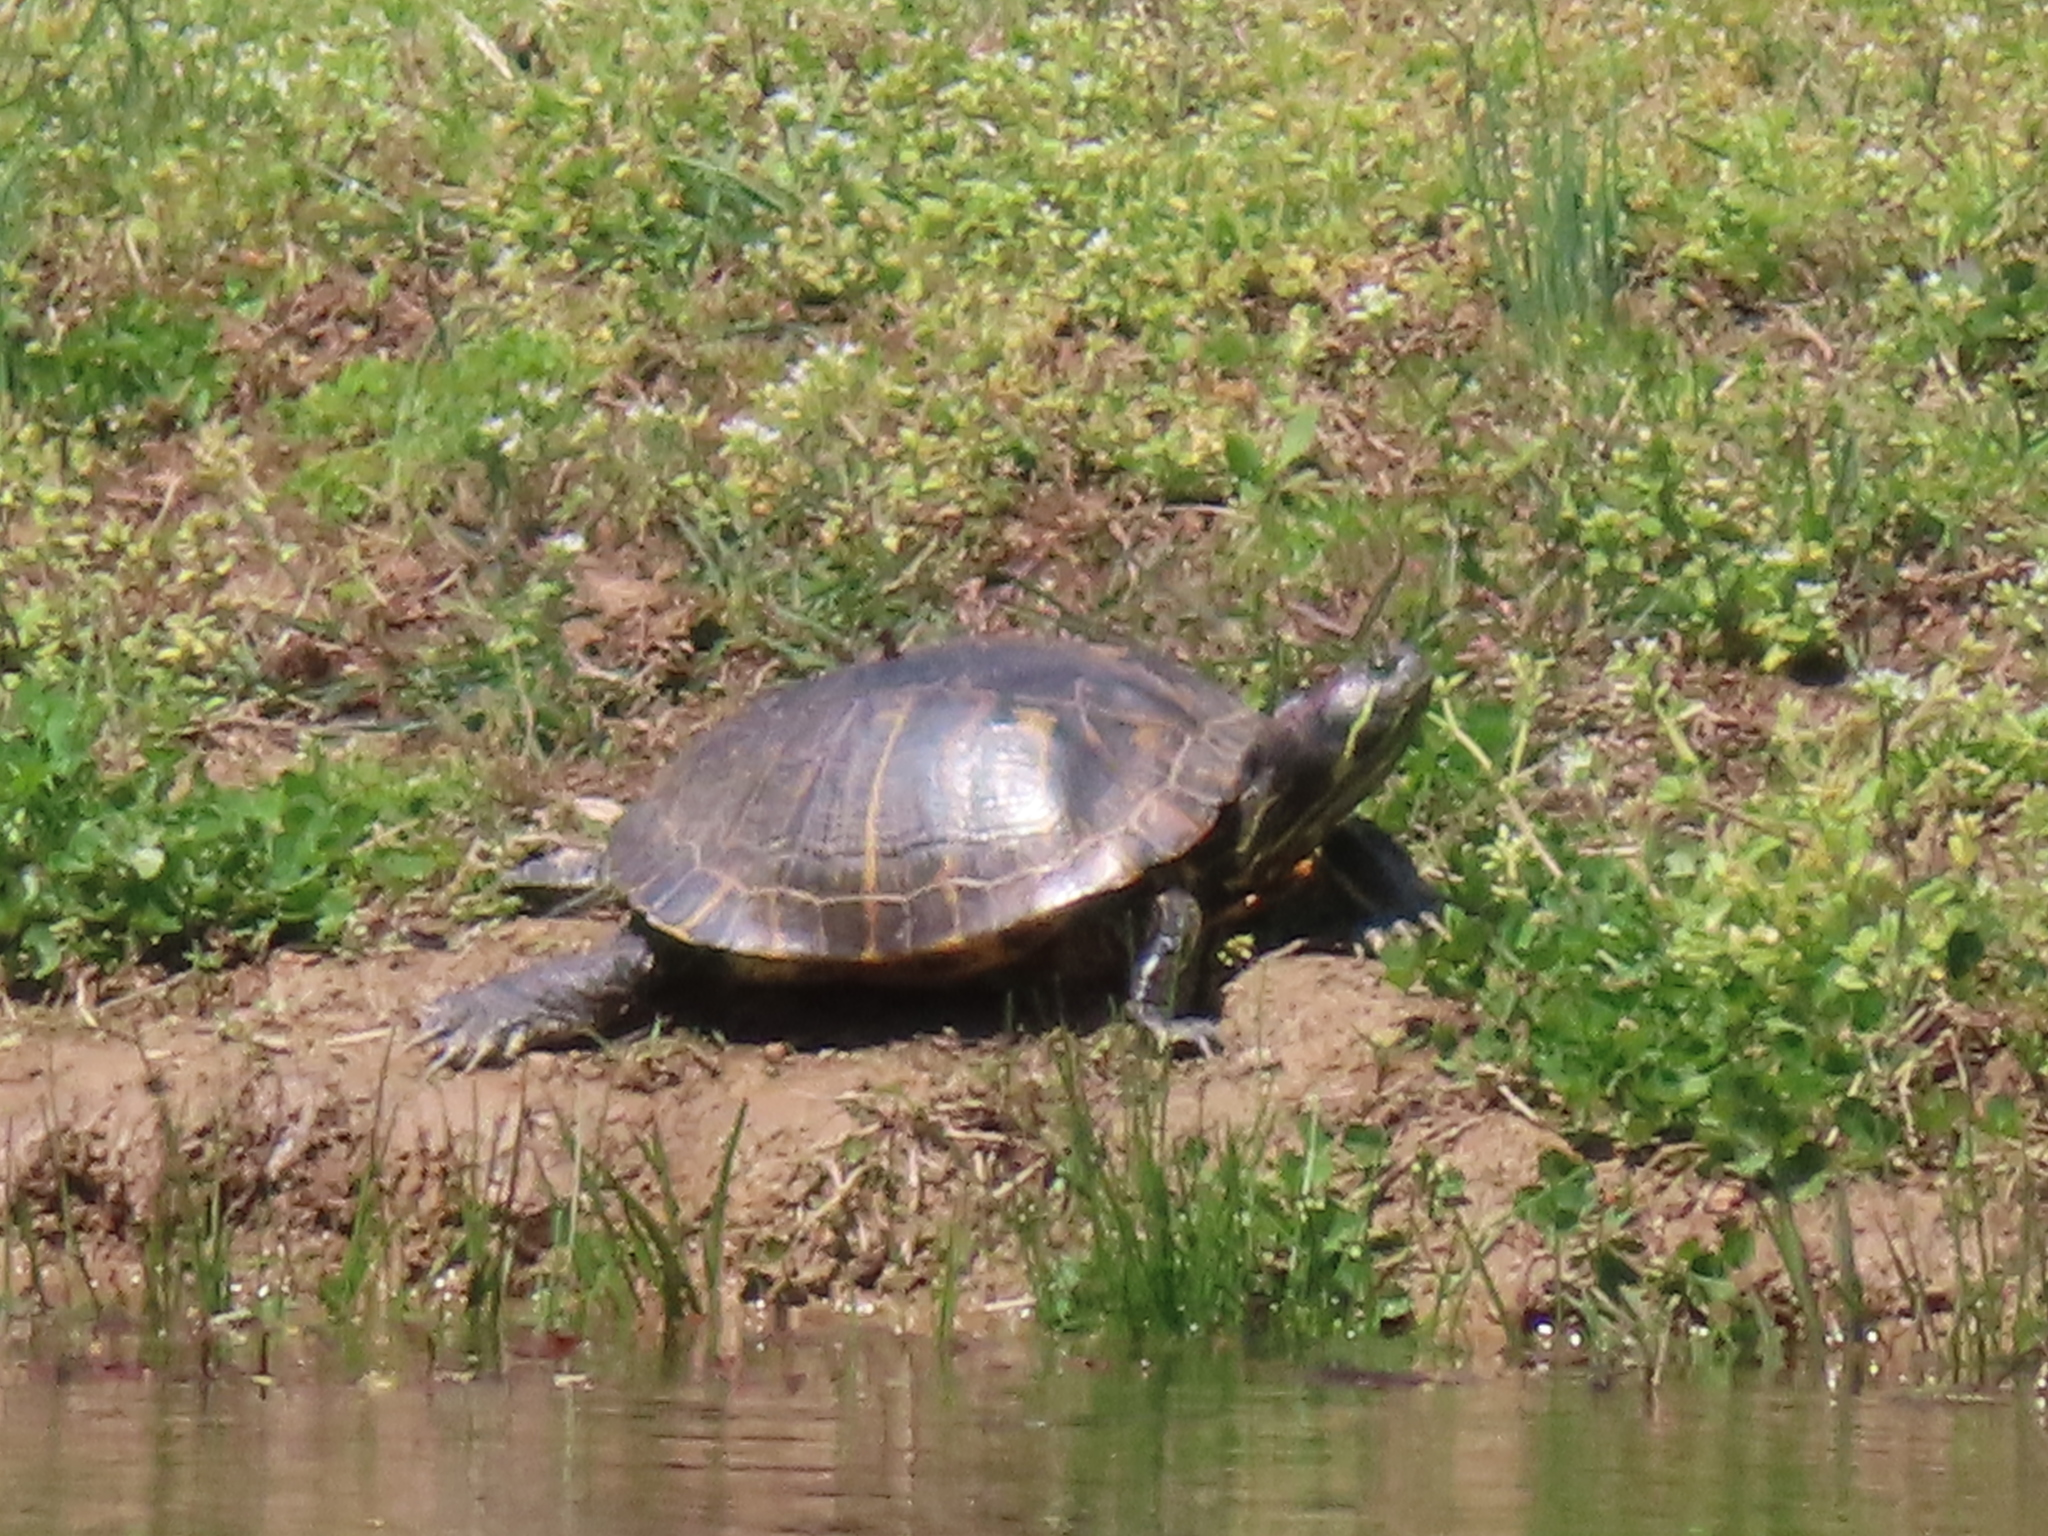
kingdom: Animalia
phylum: Chordata
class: Testudines
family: Emydidae
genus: Trachemys
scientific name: Trachemys scripta
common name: Slider
